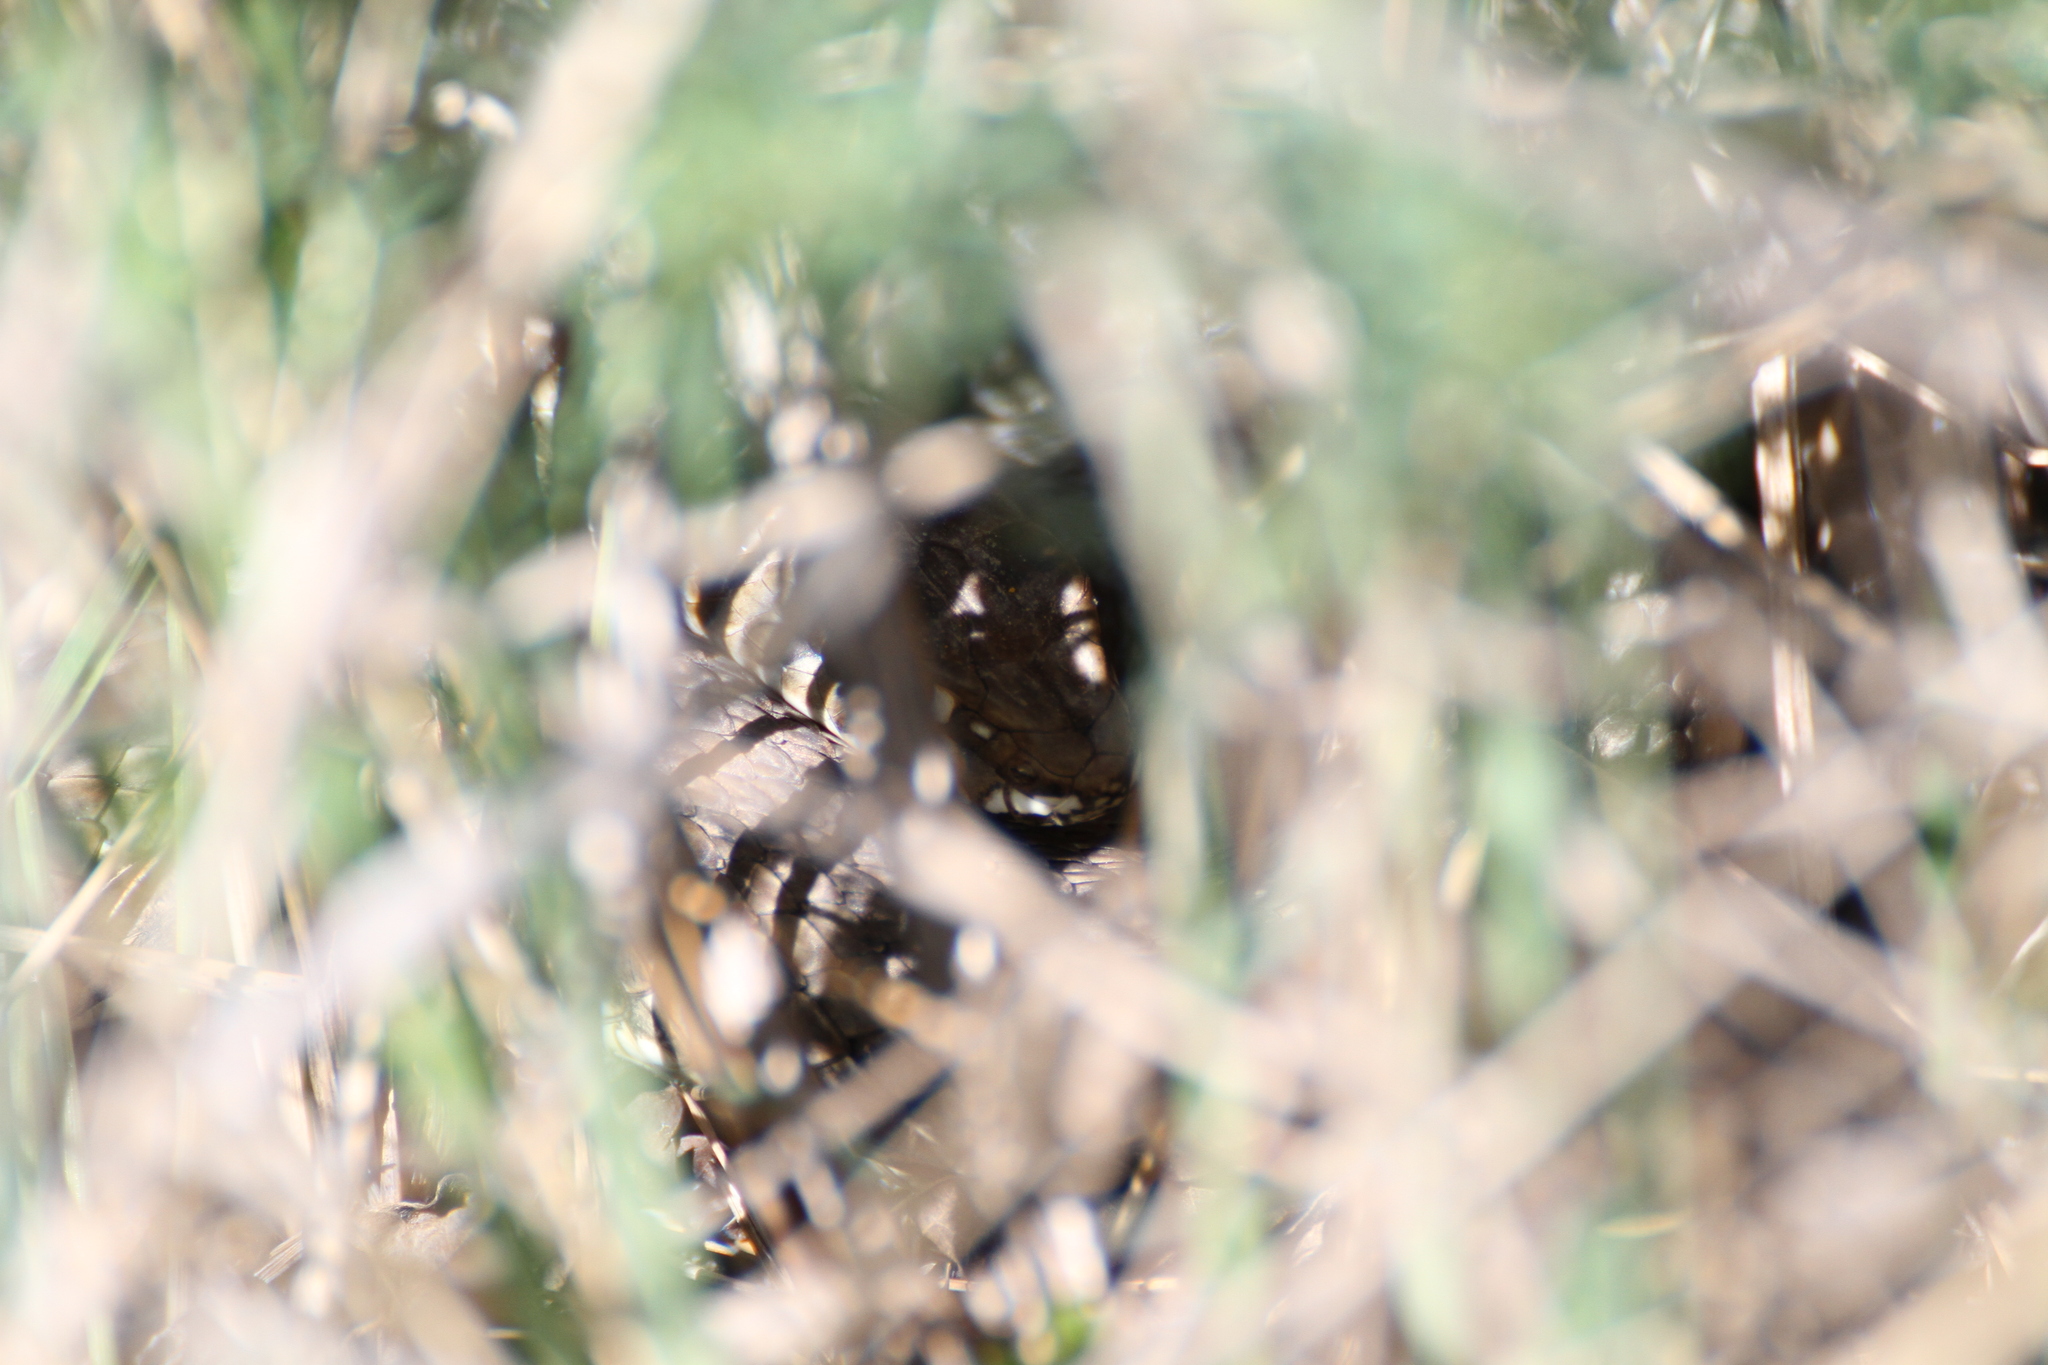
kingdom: Animalia
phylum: Chordata
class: Squamata
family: Psammophiidae
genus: Malpolon
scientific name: Malpolon monspessulanus
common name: Montpellier snake
